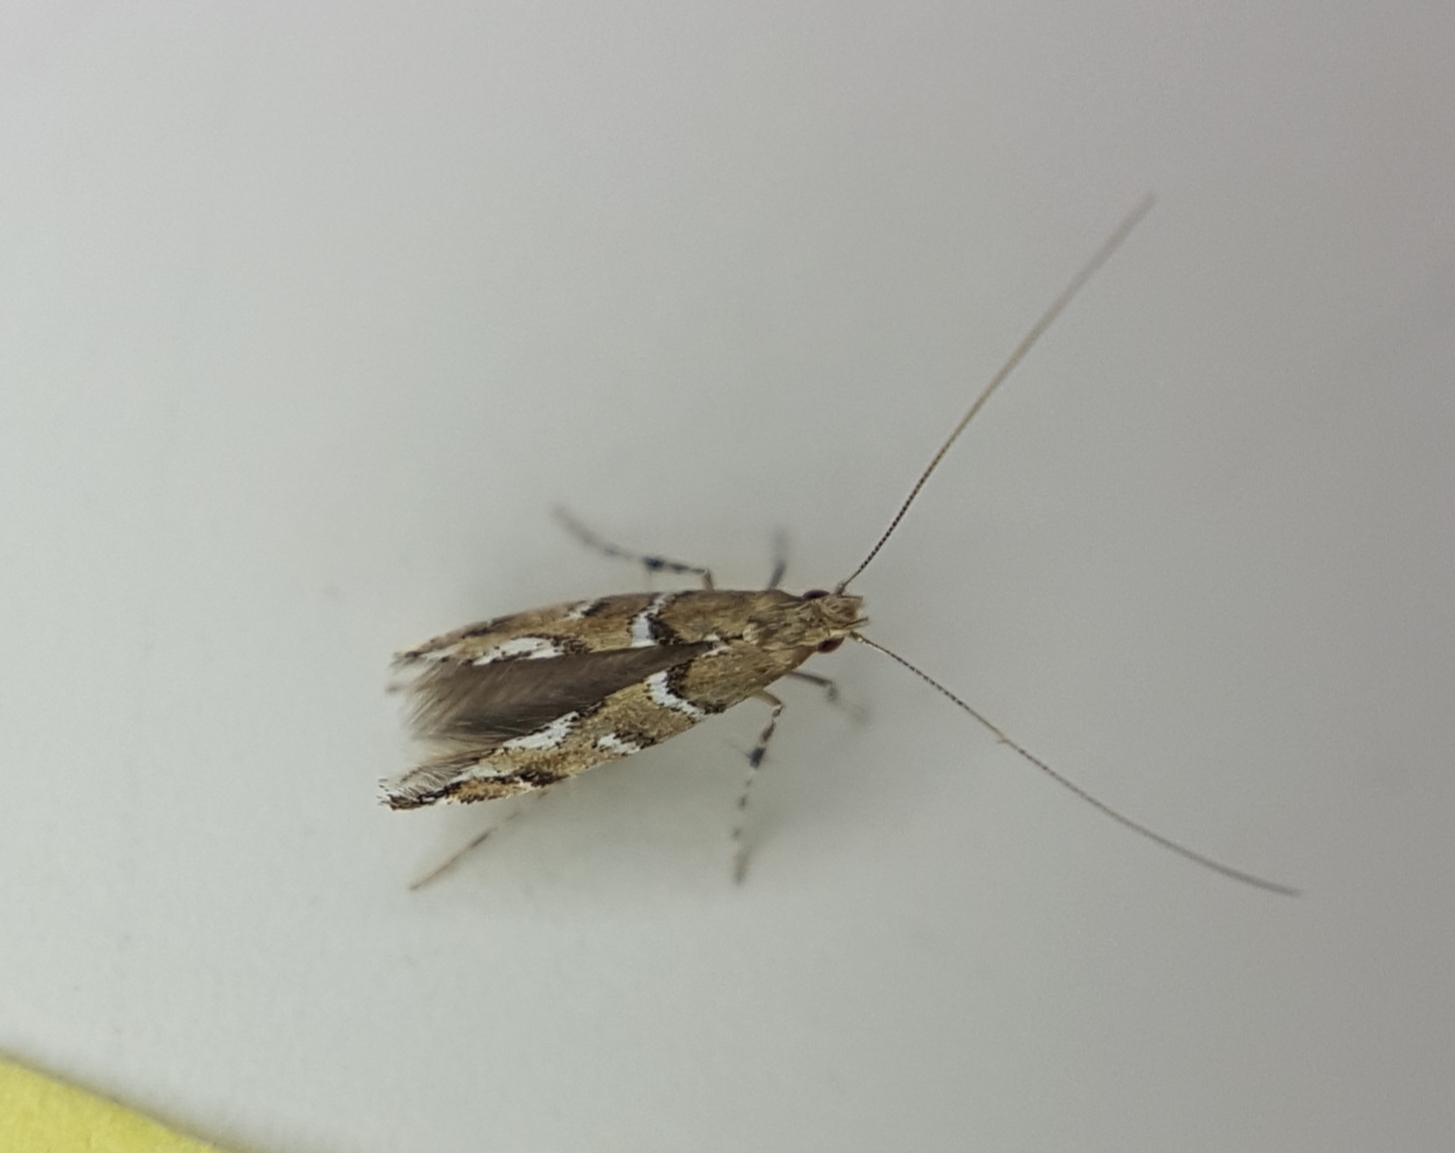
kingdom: Animalia
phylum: Arthropoda
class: Insecta
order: Lepidoptera
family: Gracillariidae
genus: Acrocercops
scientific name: Acrocercops brongniardella
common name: Brown oak slender
